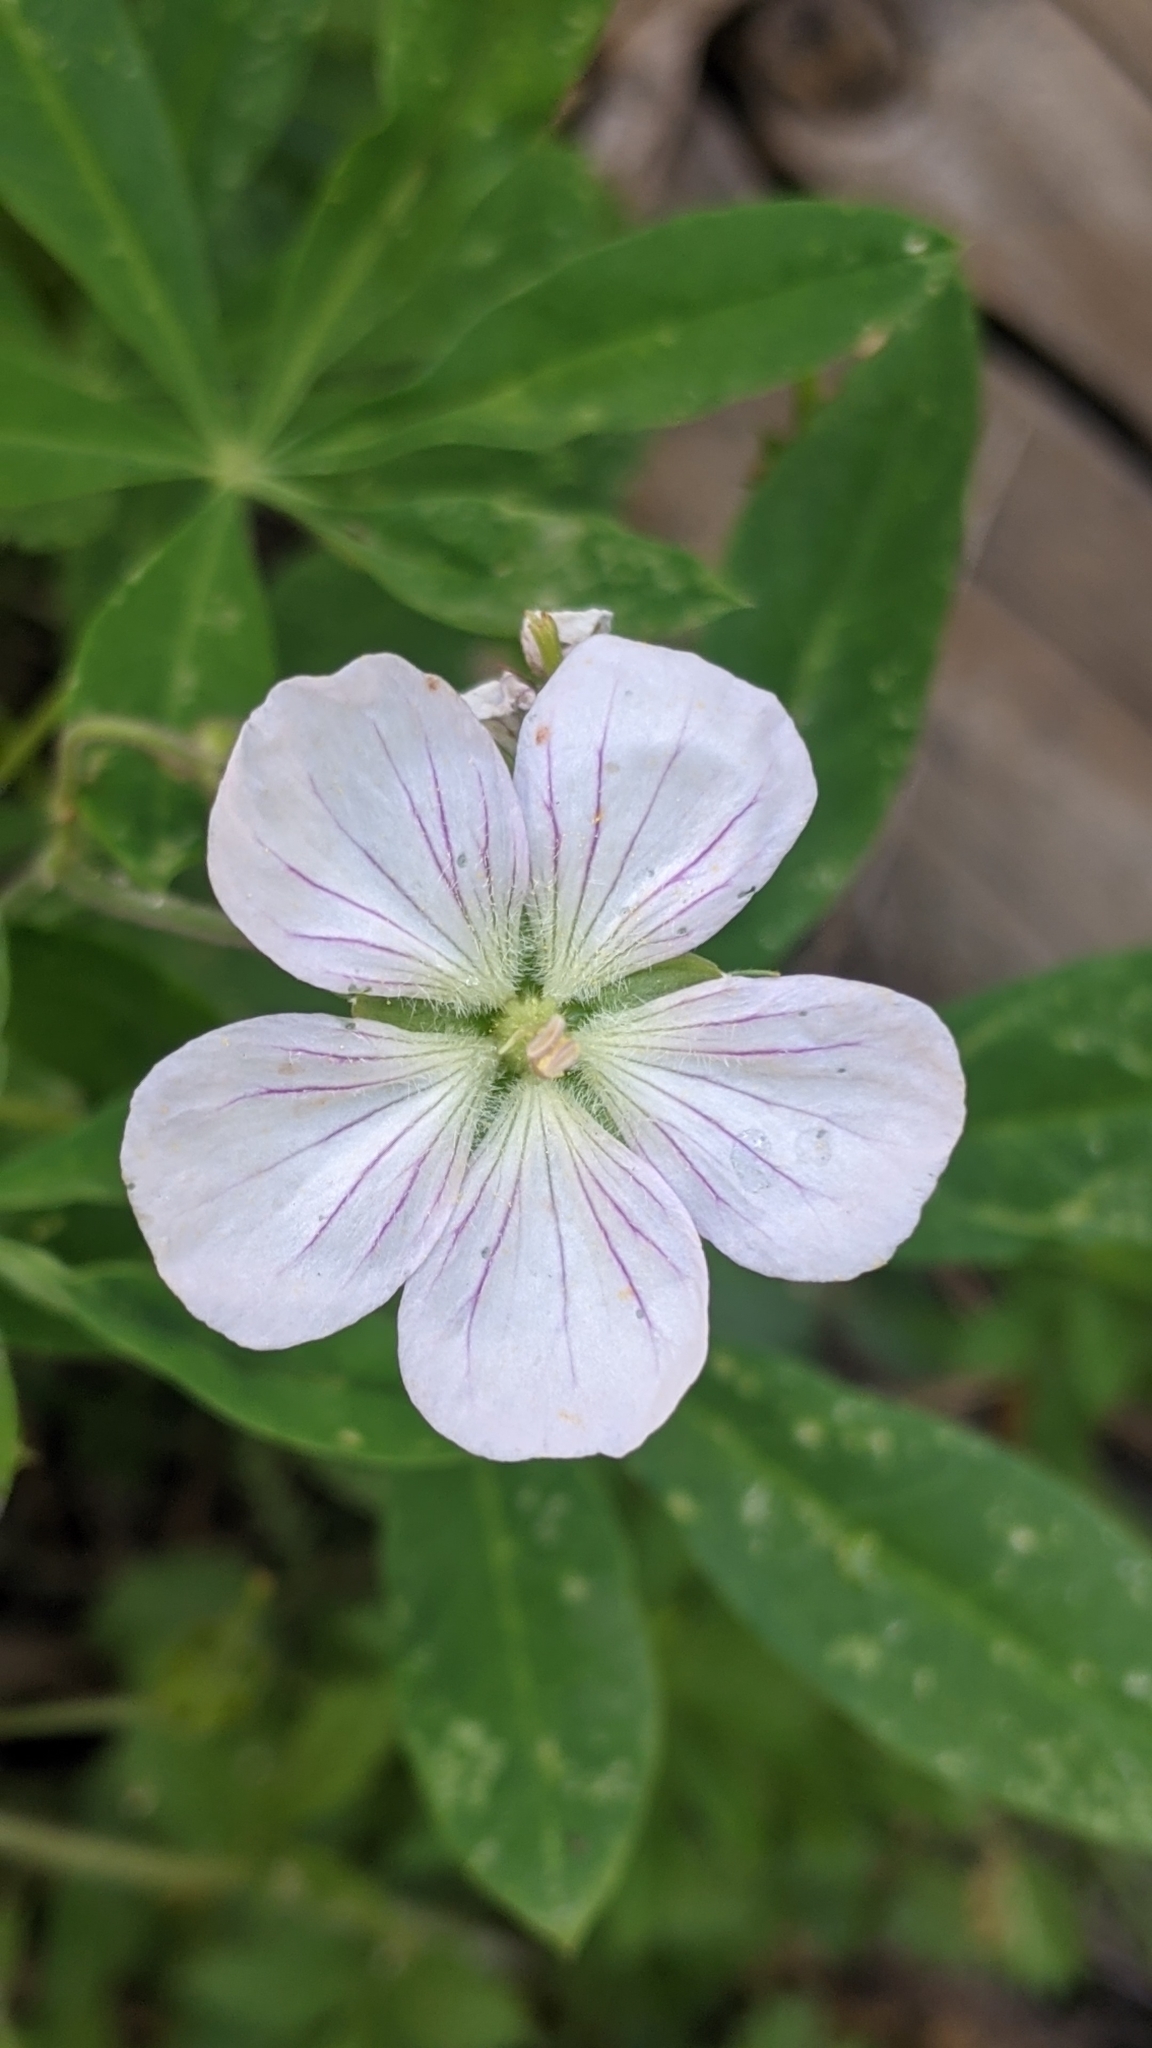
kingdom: Plantae
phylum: Tracheophyta
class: Magnoliopsida
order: Geraniales
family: Geraniaceae
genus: Geranium
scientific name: Geranium richardsonii
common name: Richardson's crane's-bill
